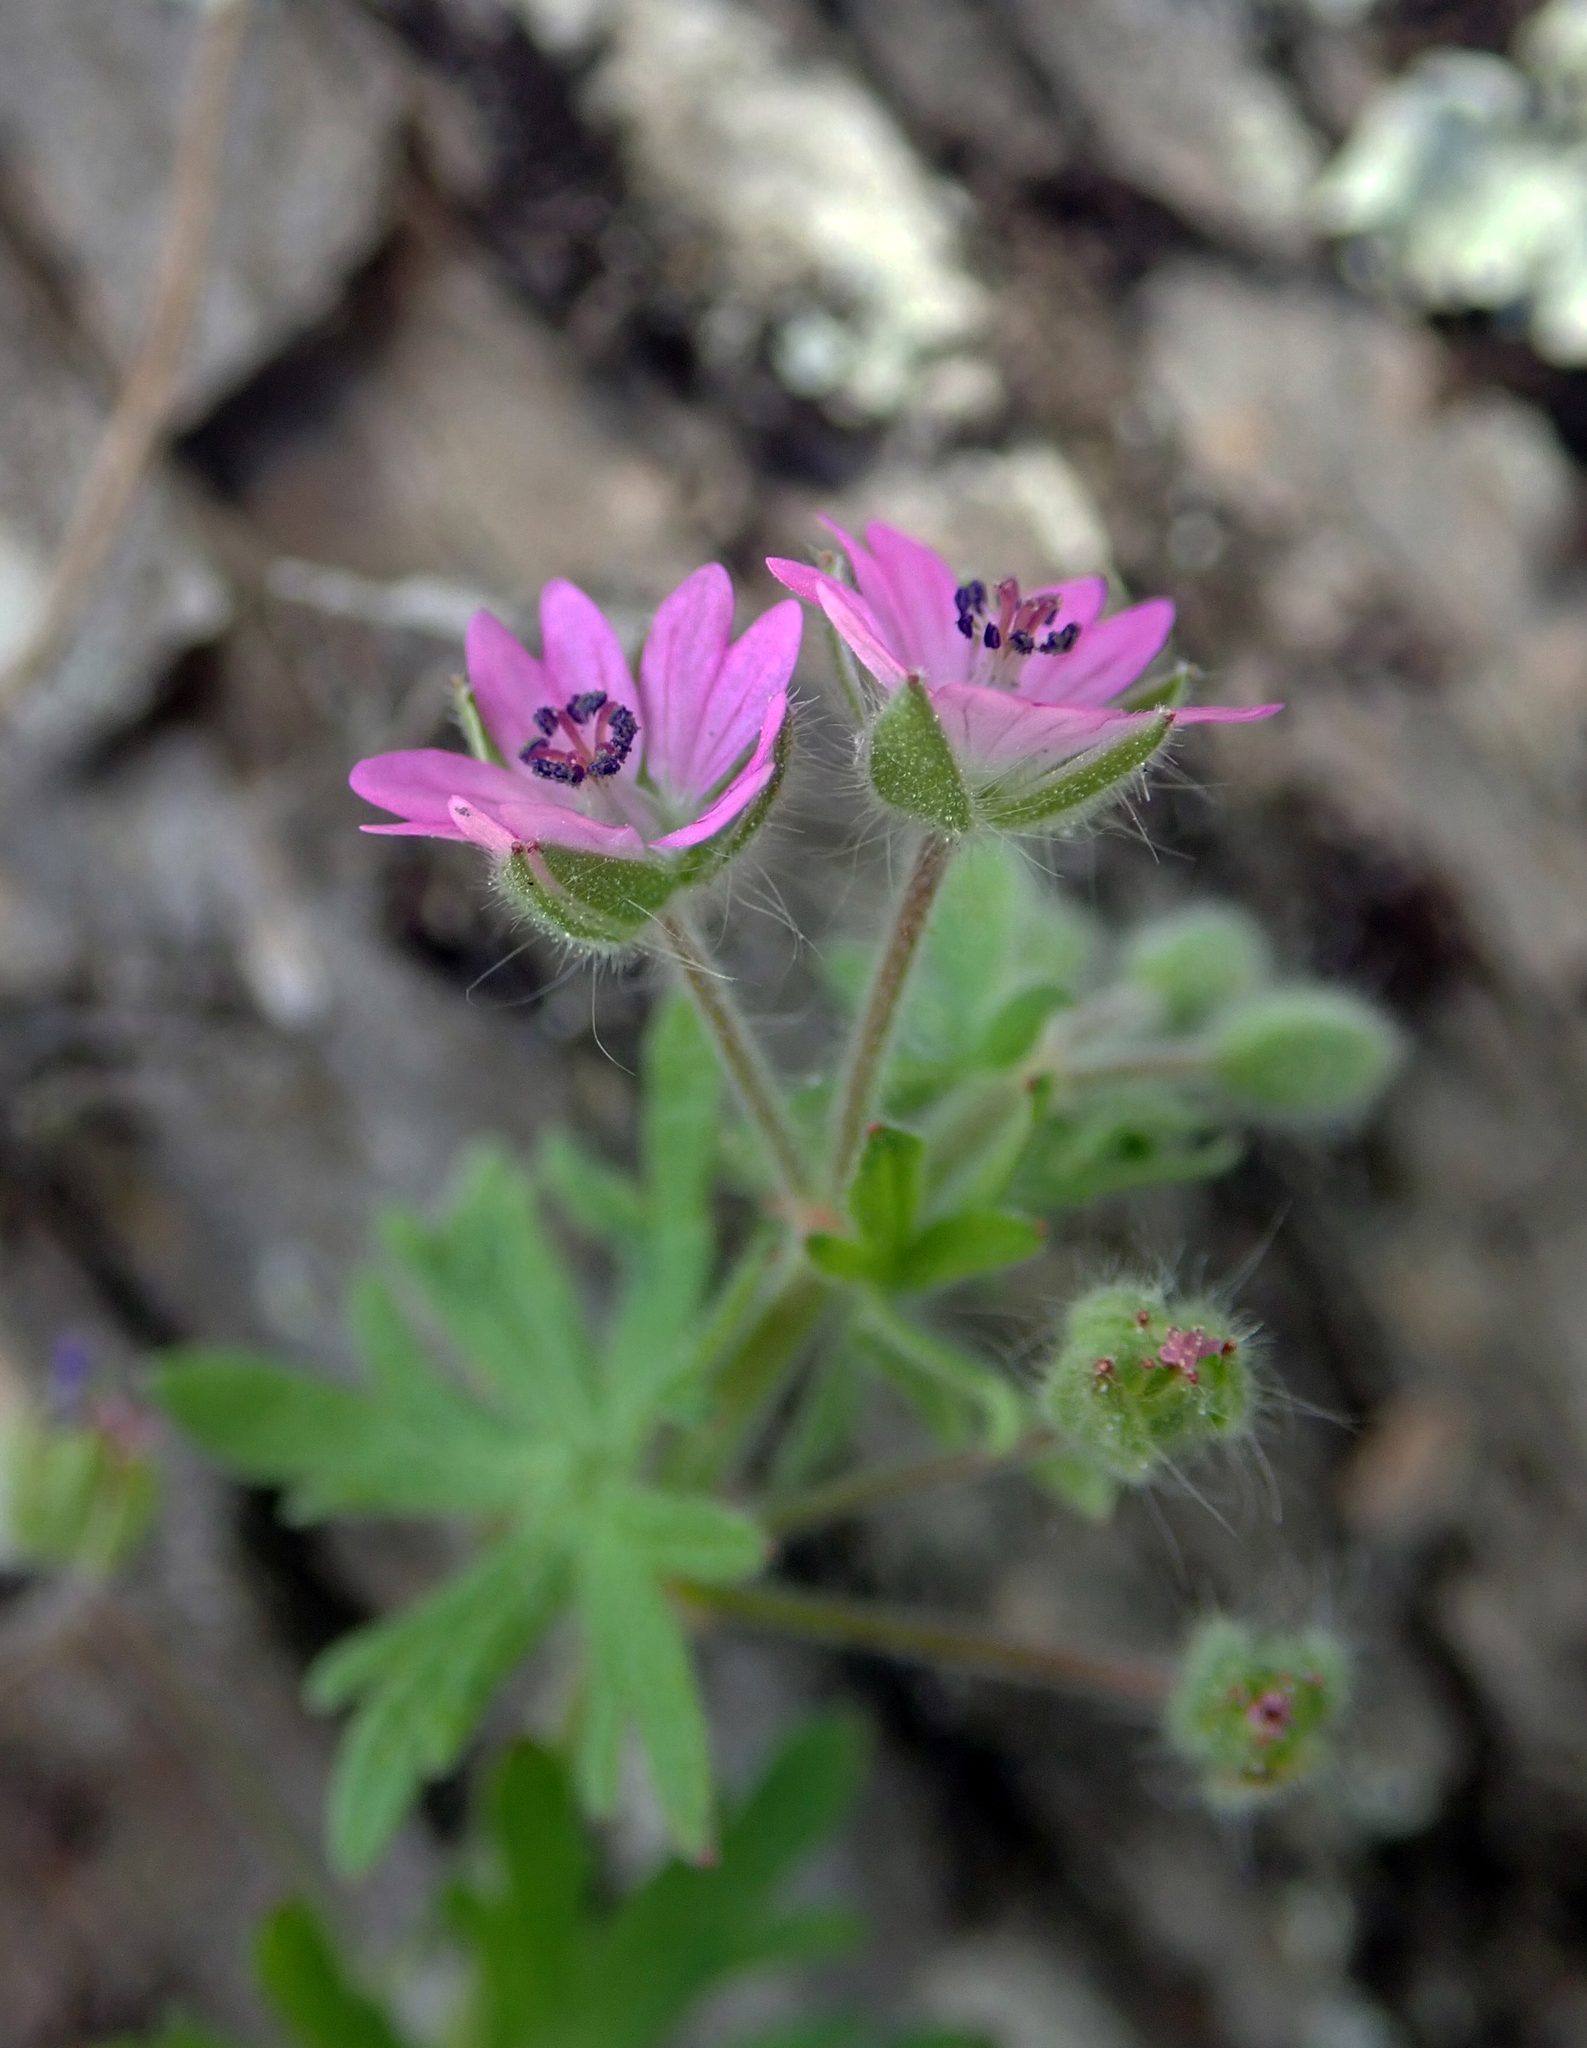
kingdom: Plantae
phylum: Tracheophyta
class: Magnoliopsida
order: Geraniales
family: Geraniaceae
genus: Geranium
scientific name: Geranium dissectum
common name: Cut-leaved crane's-bill
